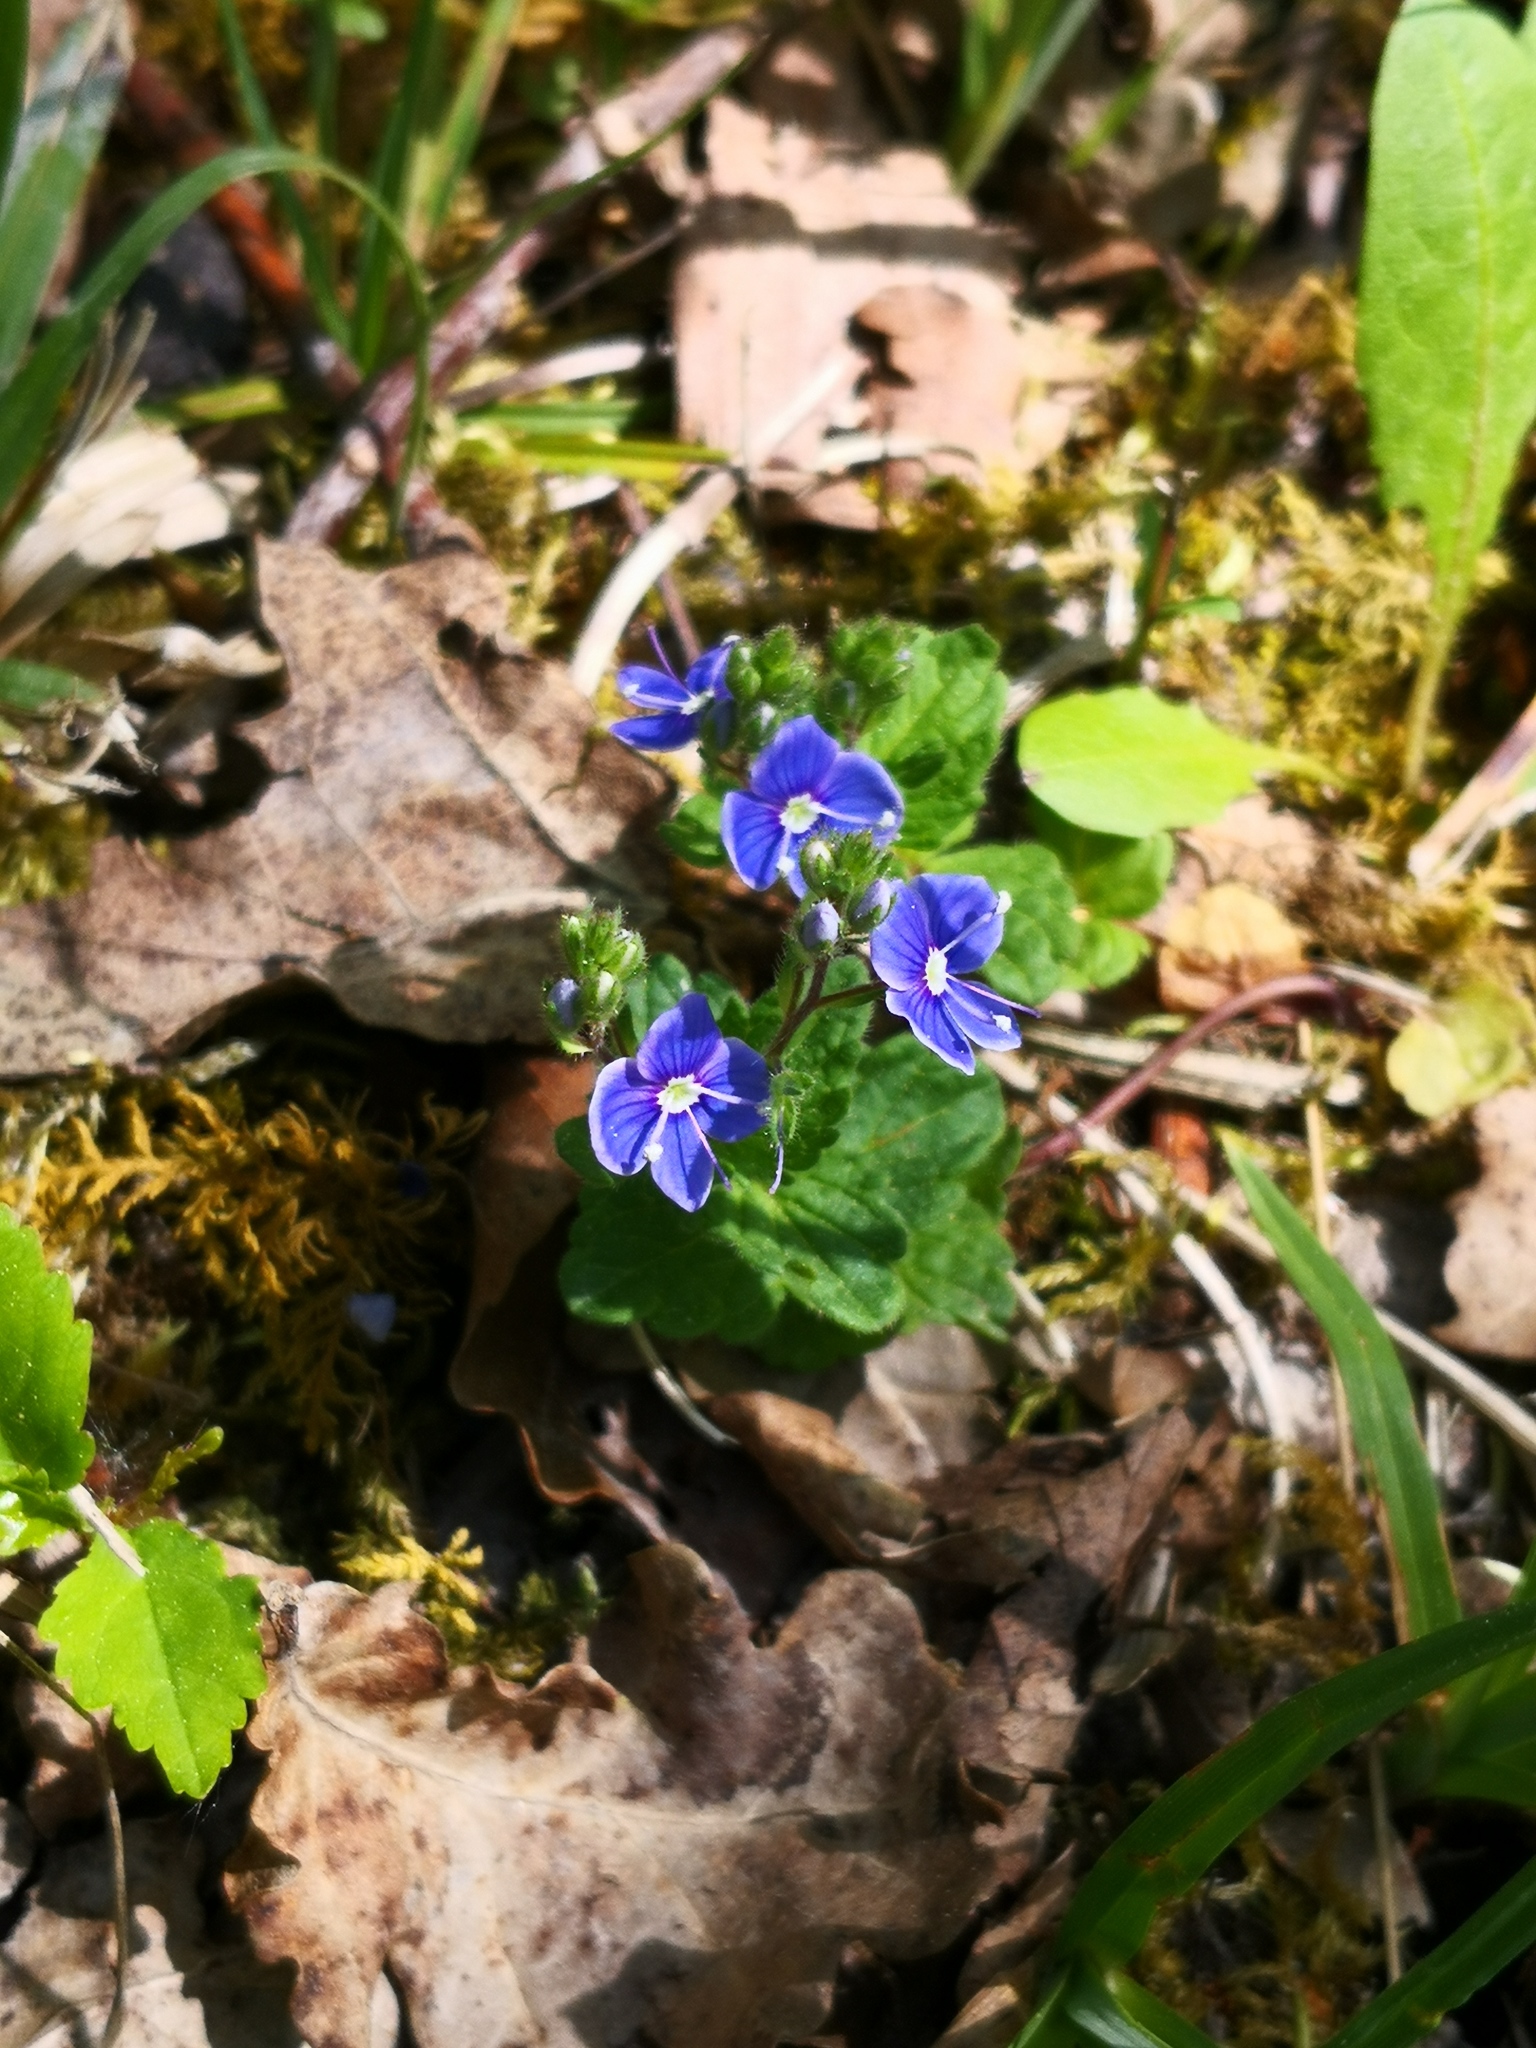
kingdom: Plantae
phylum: Tracheophyta
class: Magnoliopsida
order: Lamiales
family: Plantaginaceae
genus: Veronica
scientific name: Veronica chamaedrys
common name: Germander speedwell
